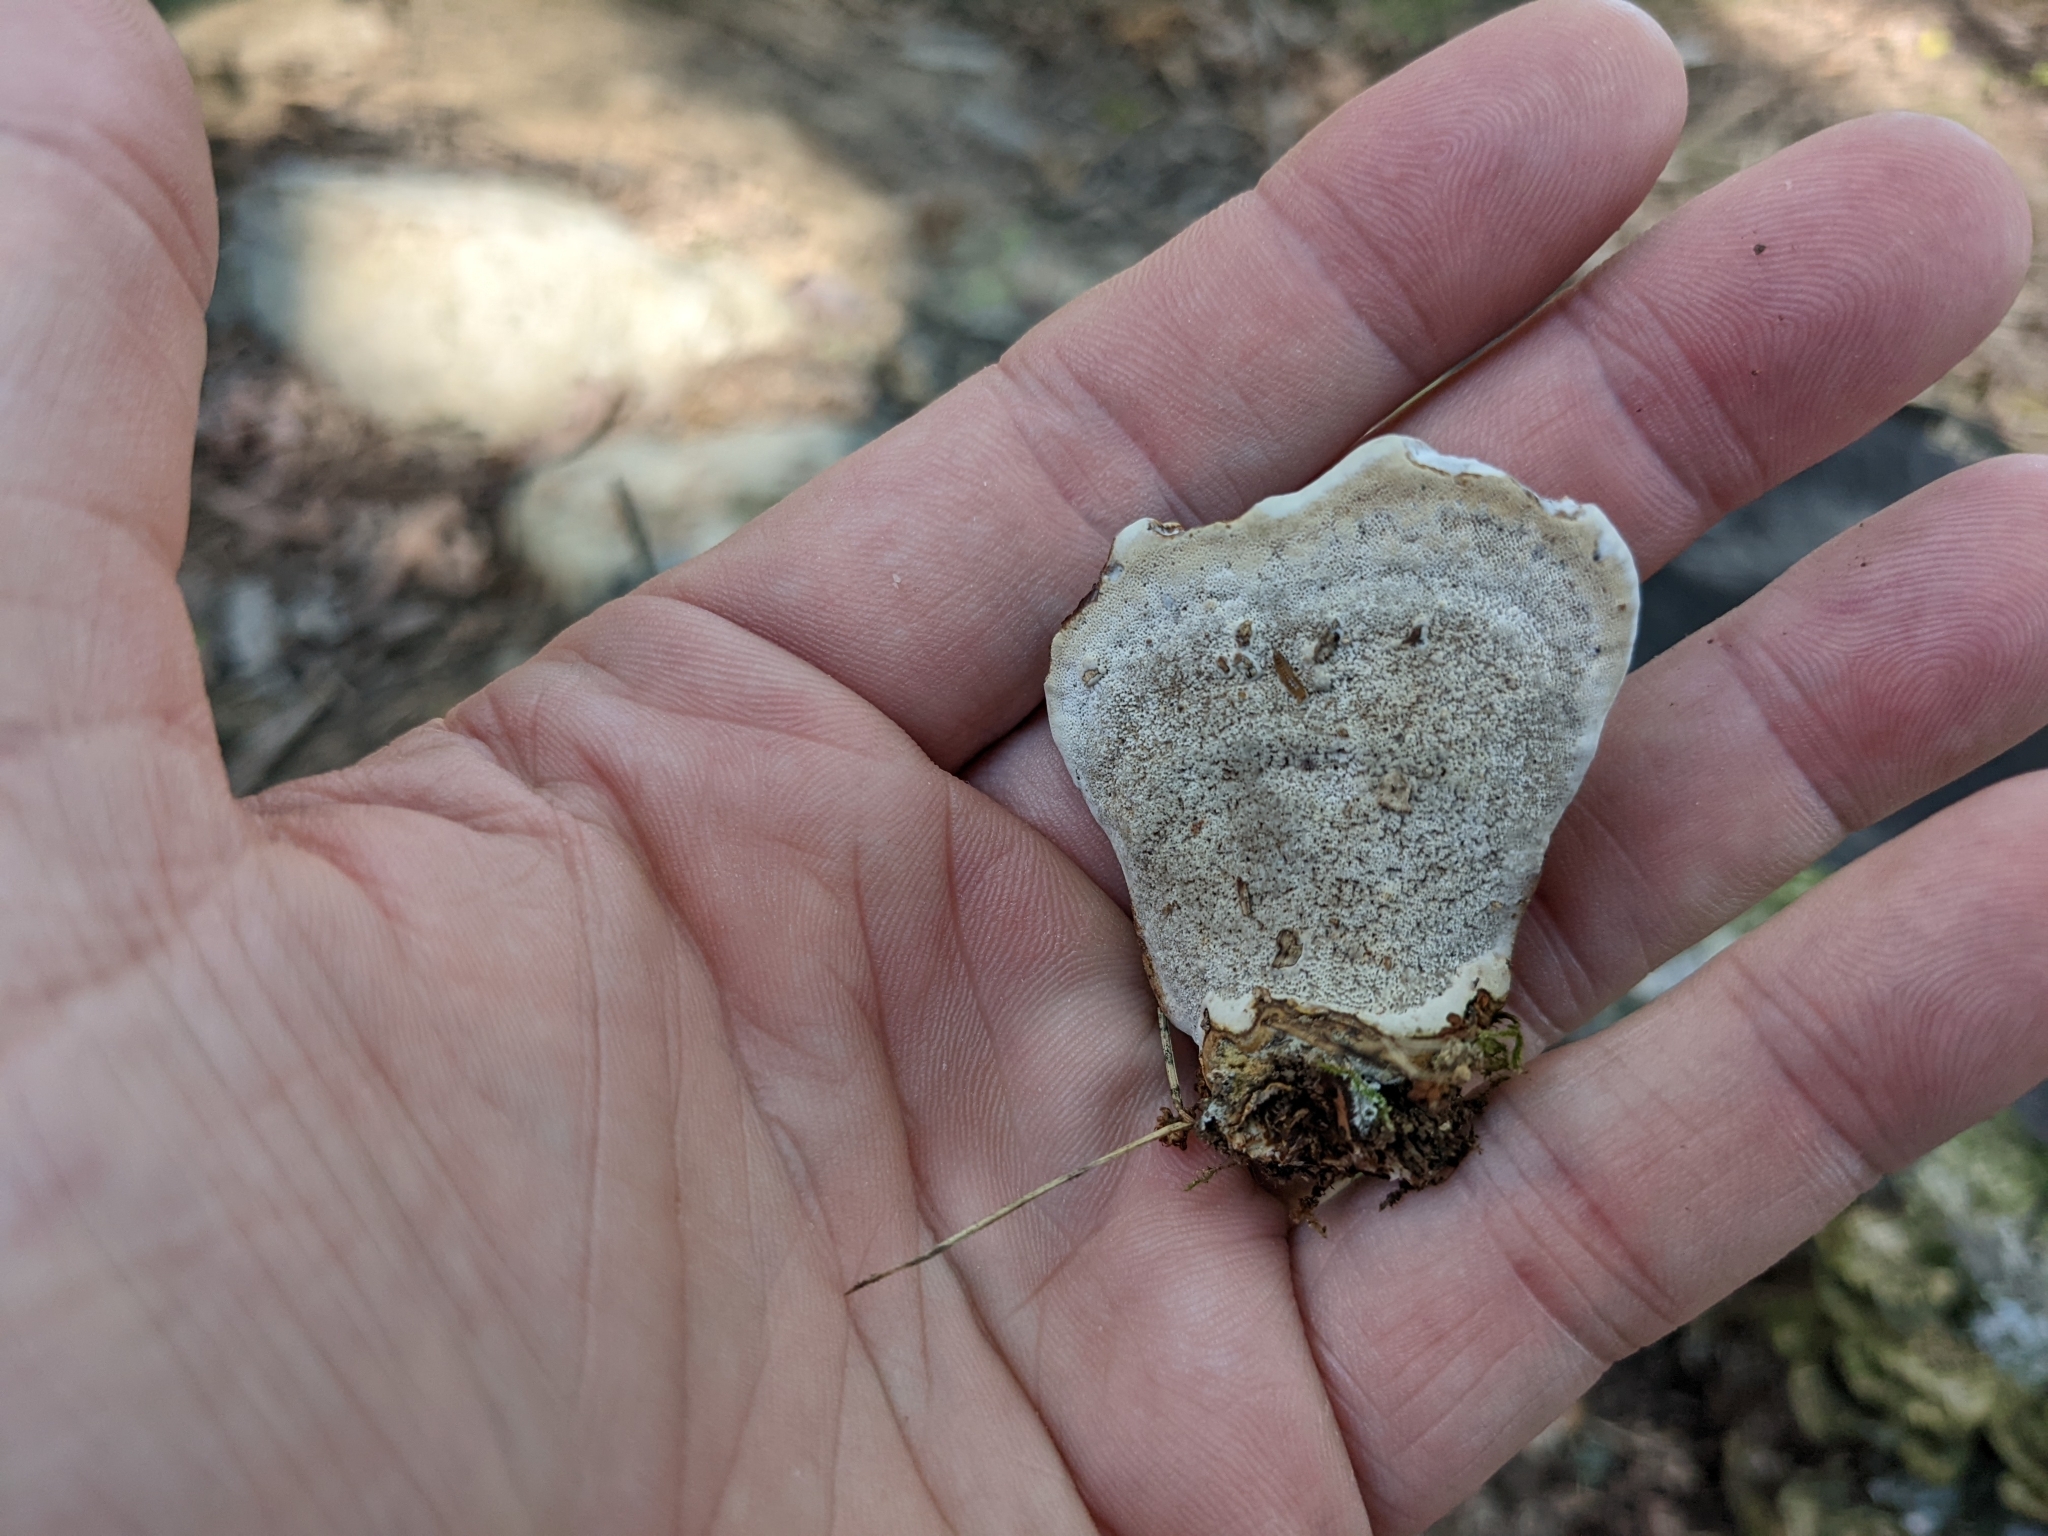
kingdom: Fungi
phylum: Basidiomycota
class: Agaricomycetes
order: Polyporales
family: Polyporaceae
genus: Ganoderma
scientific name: Ganoderma lobatum
